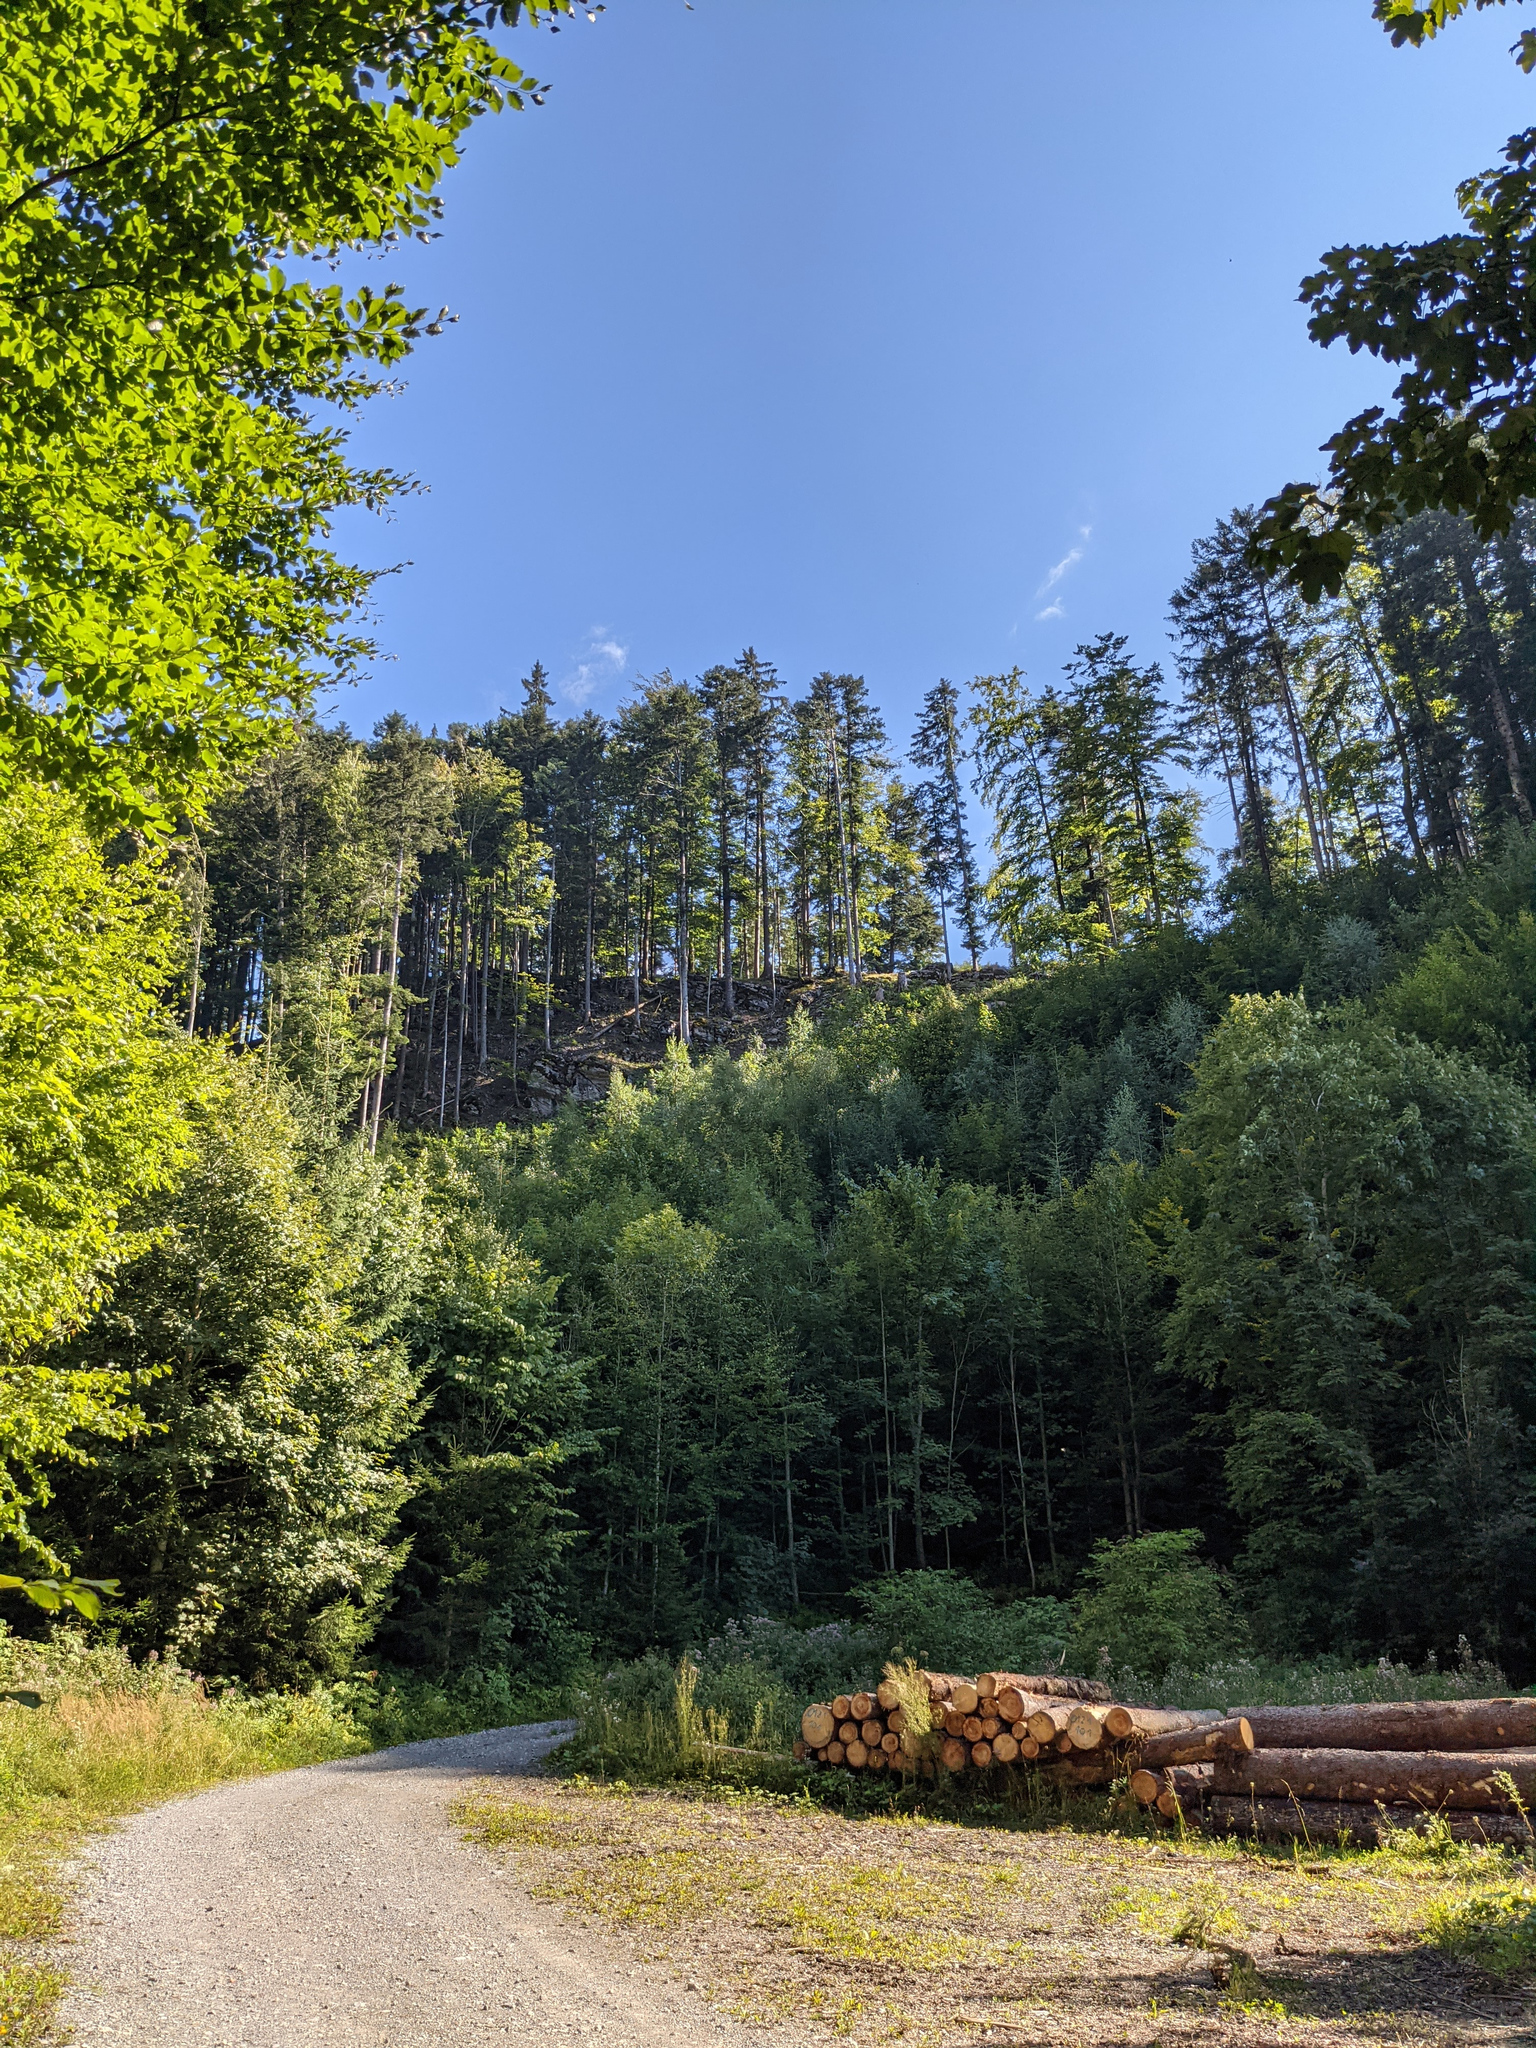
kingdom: Plantae
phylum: Tracheophyta
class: Pinopsida
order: Pinales
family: Pinaceae
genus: Picea
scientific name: Picea abies
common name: Norway spruce
